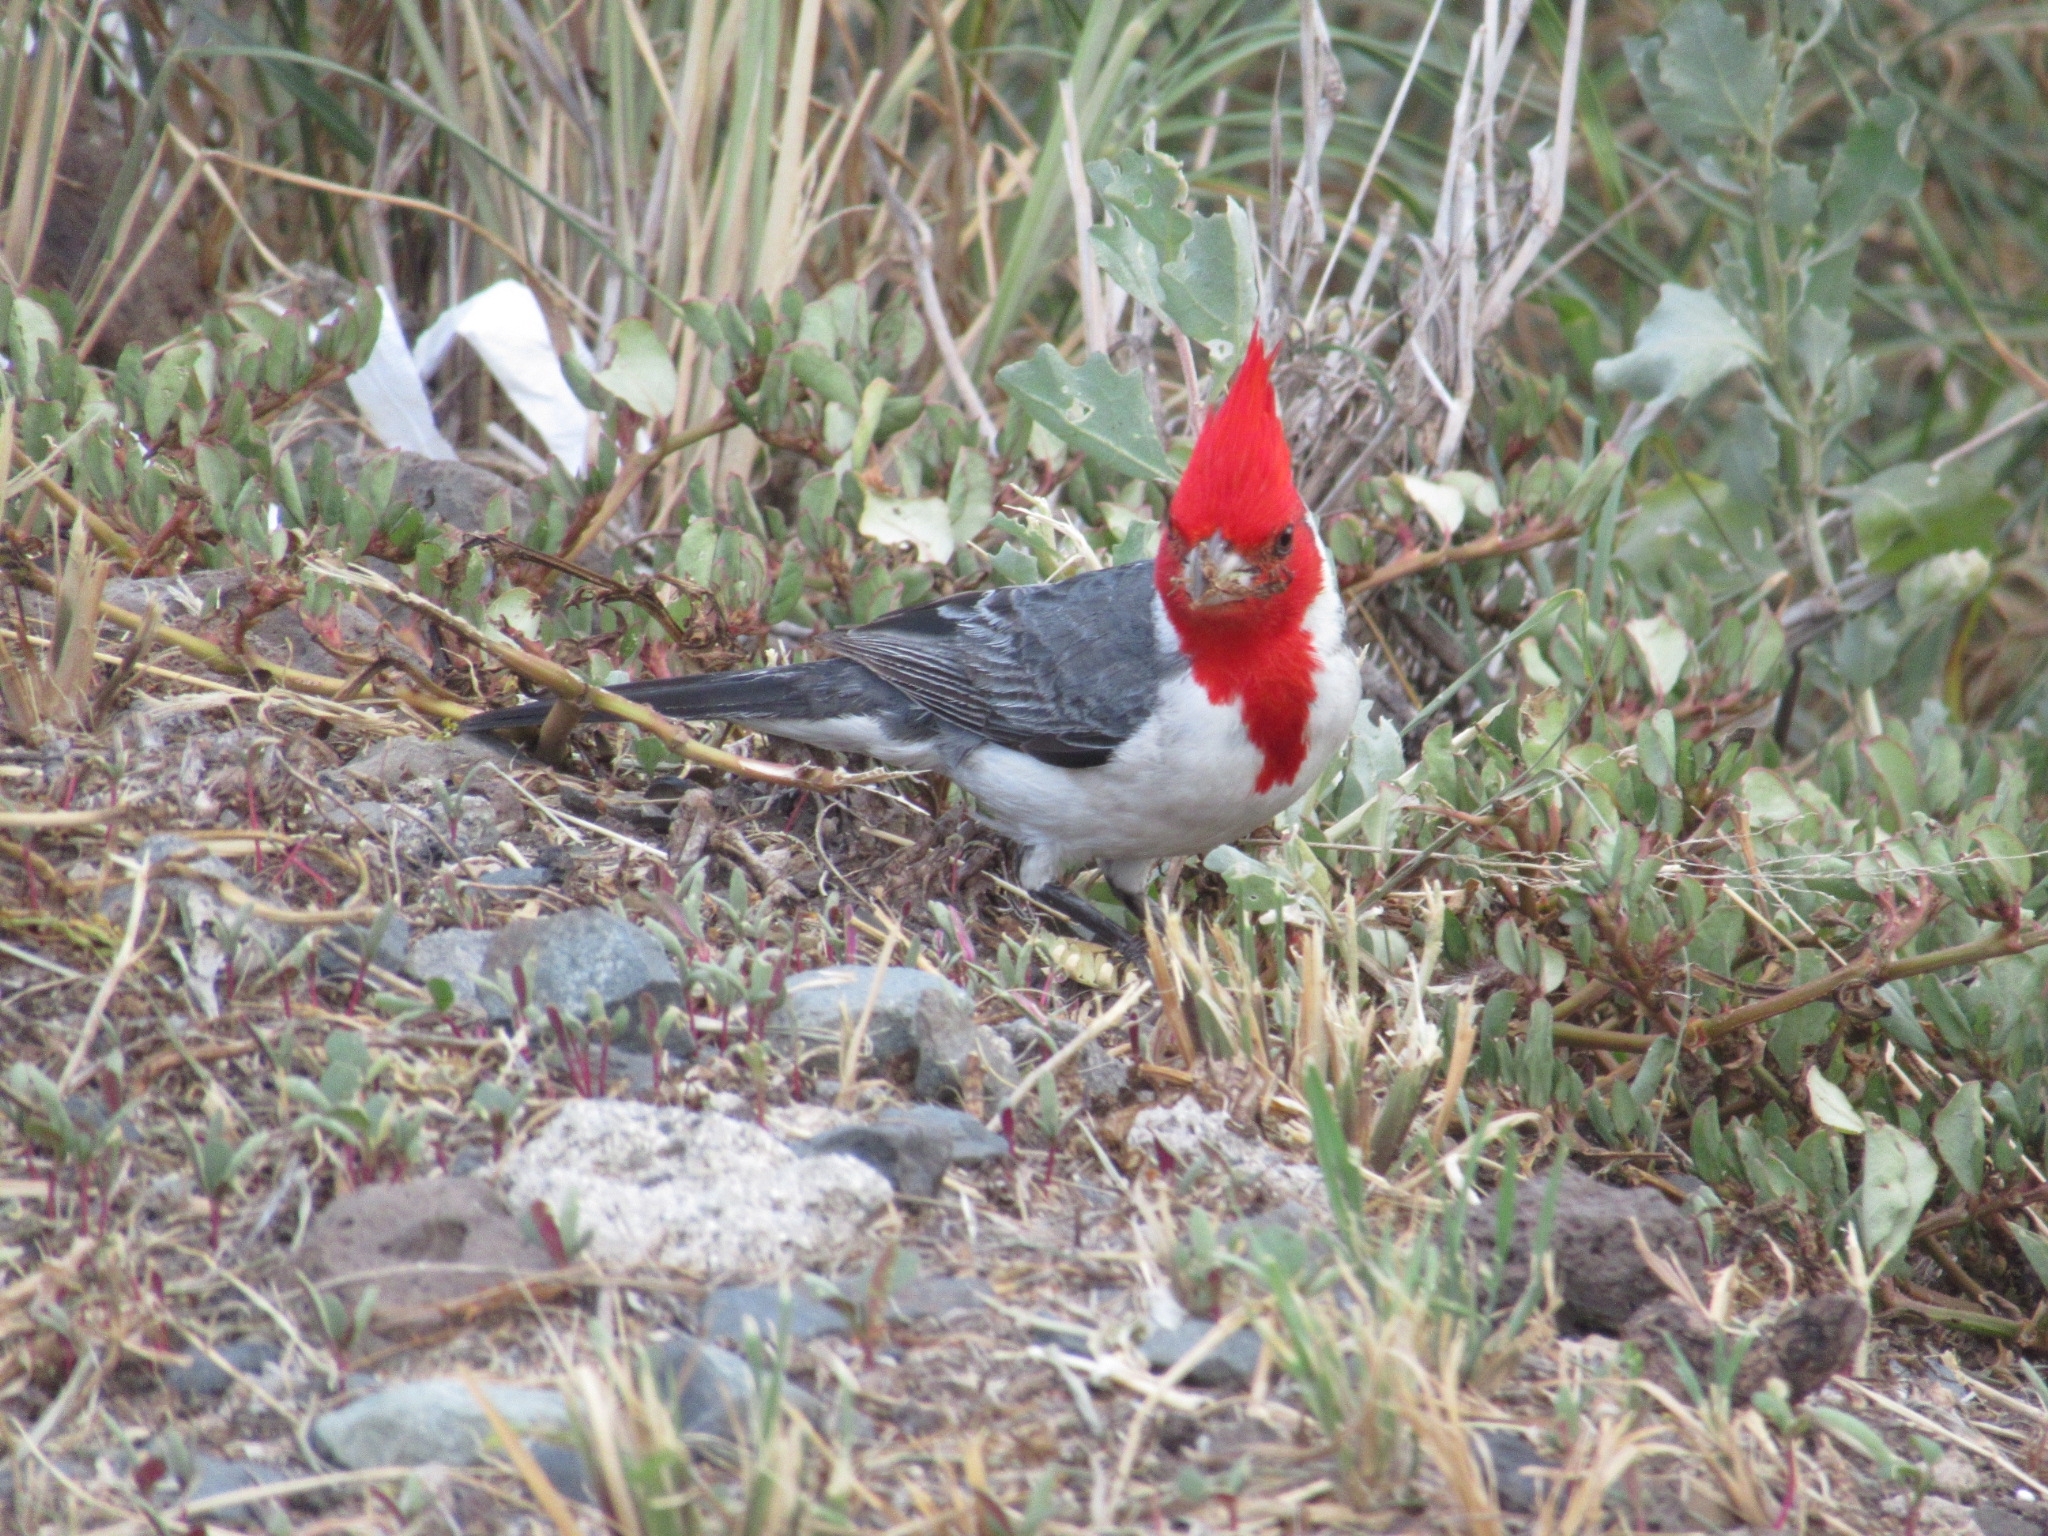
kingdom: Animalia
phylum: Chordata
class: Aves
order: Passeriformes
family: Thraupidae
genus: Paroaria
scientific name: Paroaria coronata
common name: Red-crested cardinal
